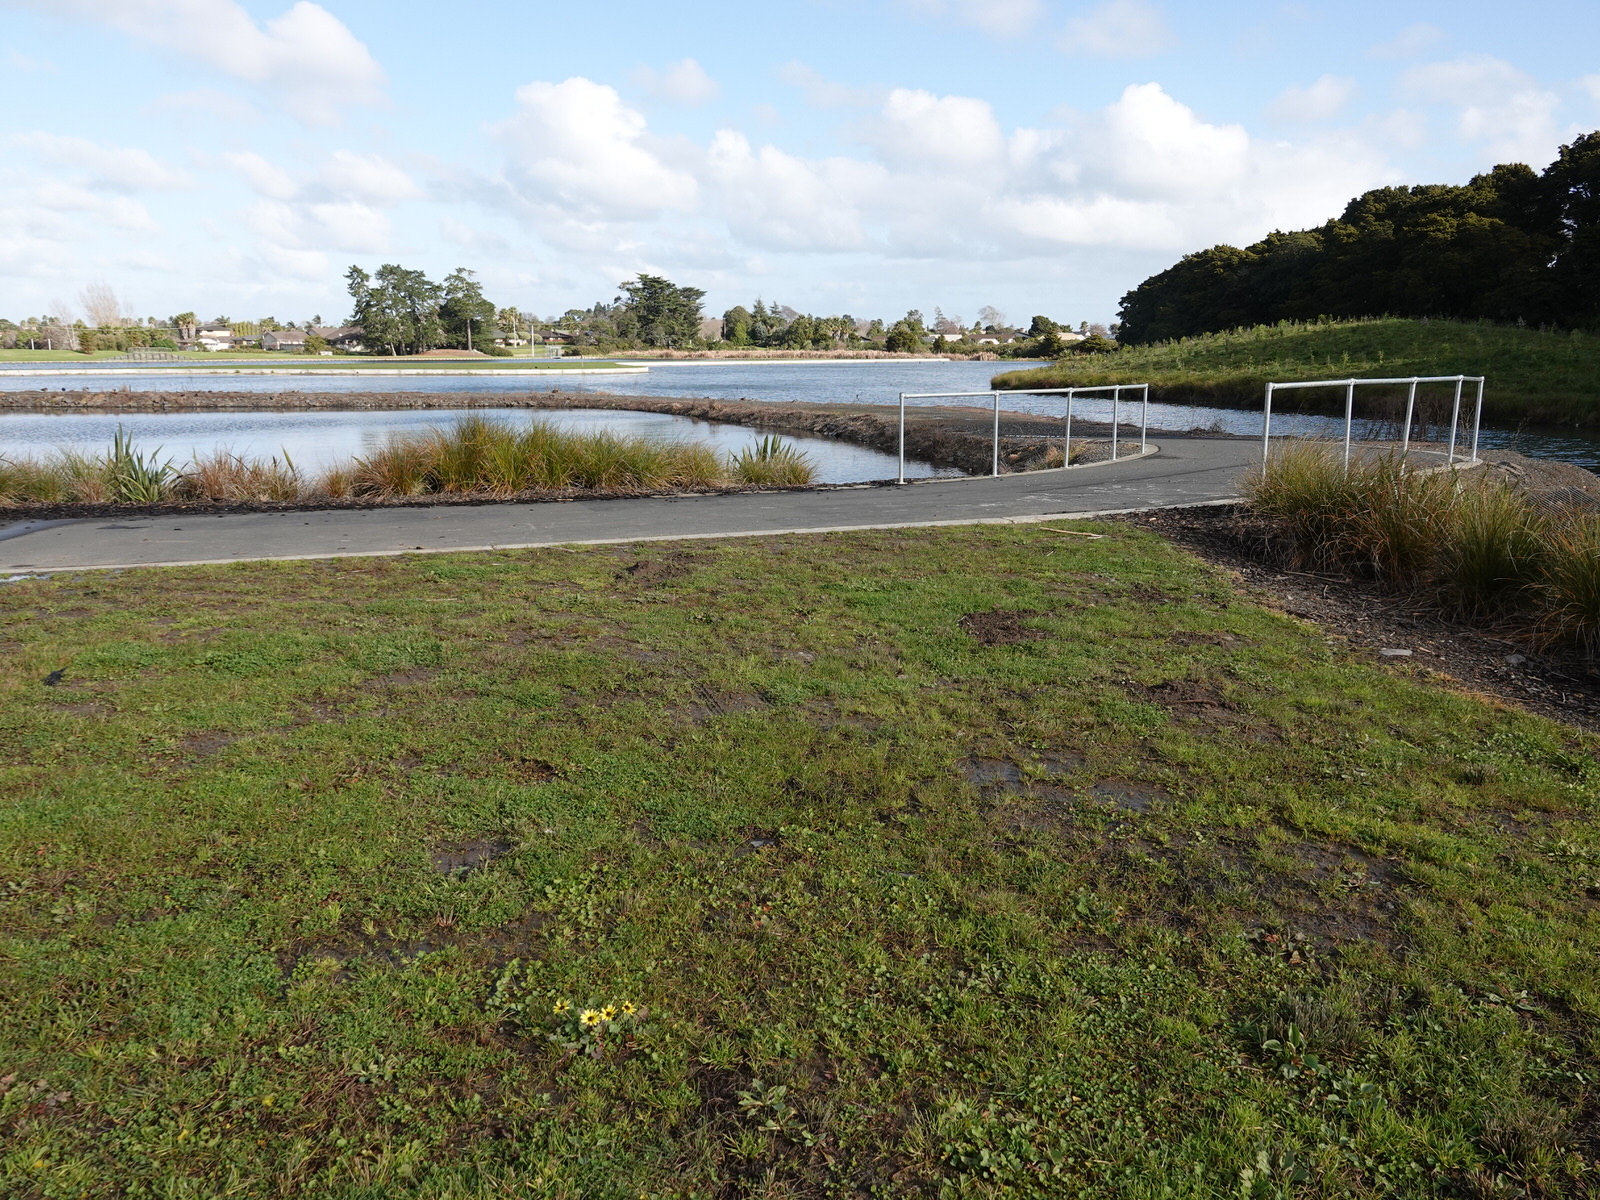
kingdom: Plantae
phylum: Tracheophyta
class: Magnoliopsida
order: Asterales
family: Asteraceae
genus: Arctotheca
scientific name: Arctotheca calendula
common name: Capeweed
